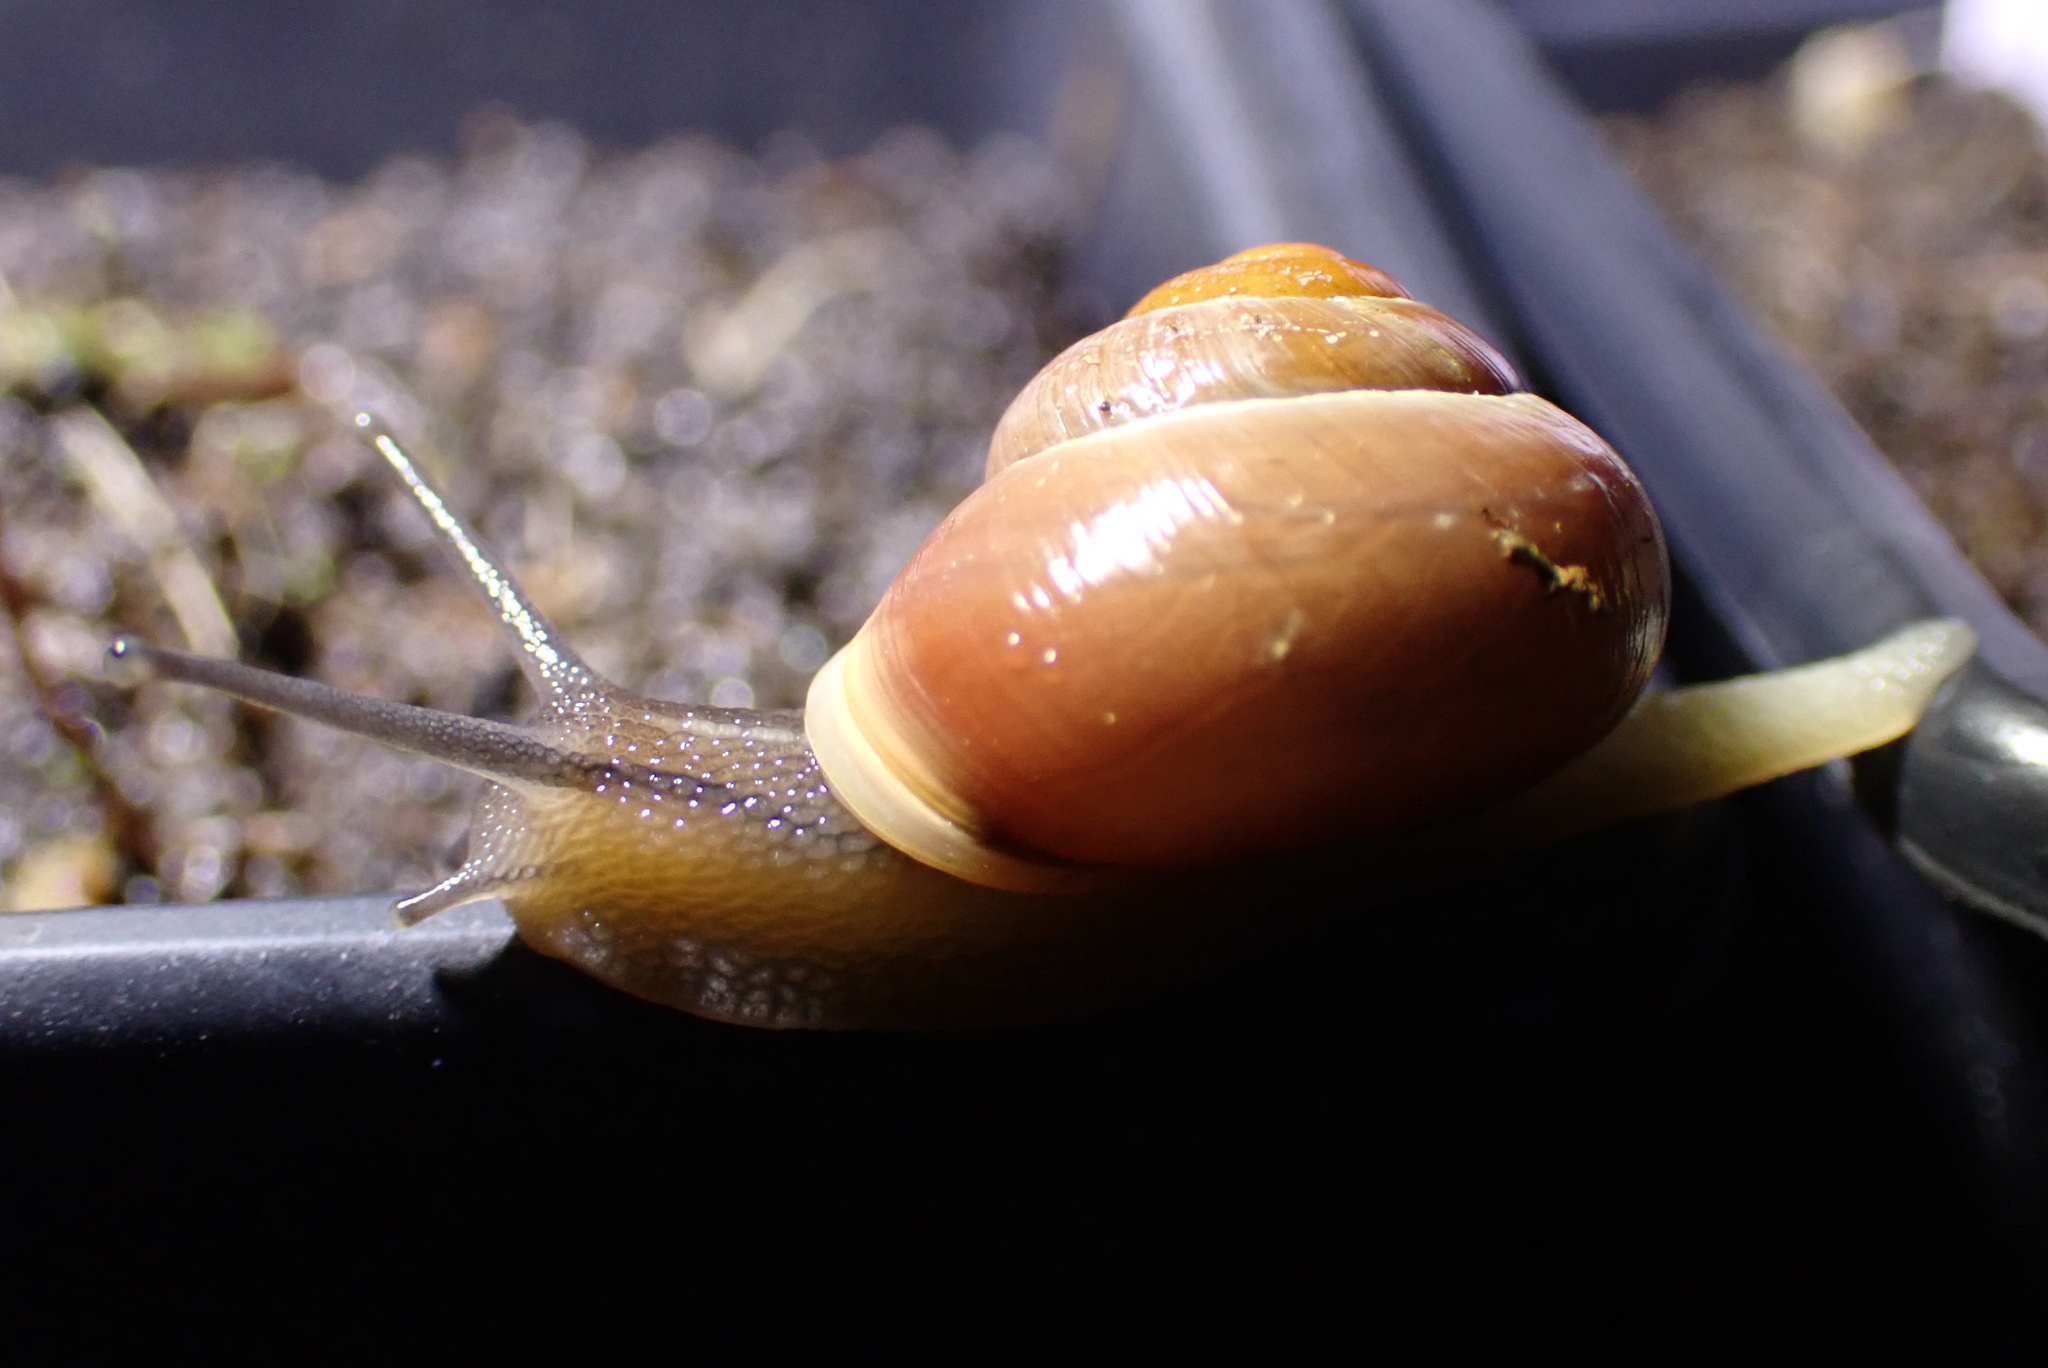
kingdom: Animalia
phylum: Mollusca
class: Gastropoda
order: Stylommatophora
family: Helicidae
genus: Cepaea
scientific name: Cepaea hortensis
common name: White-lip gardensnail
